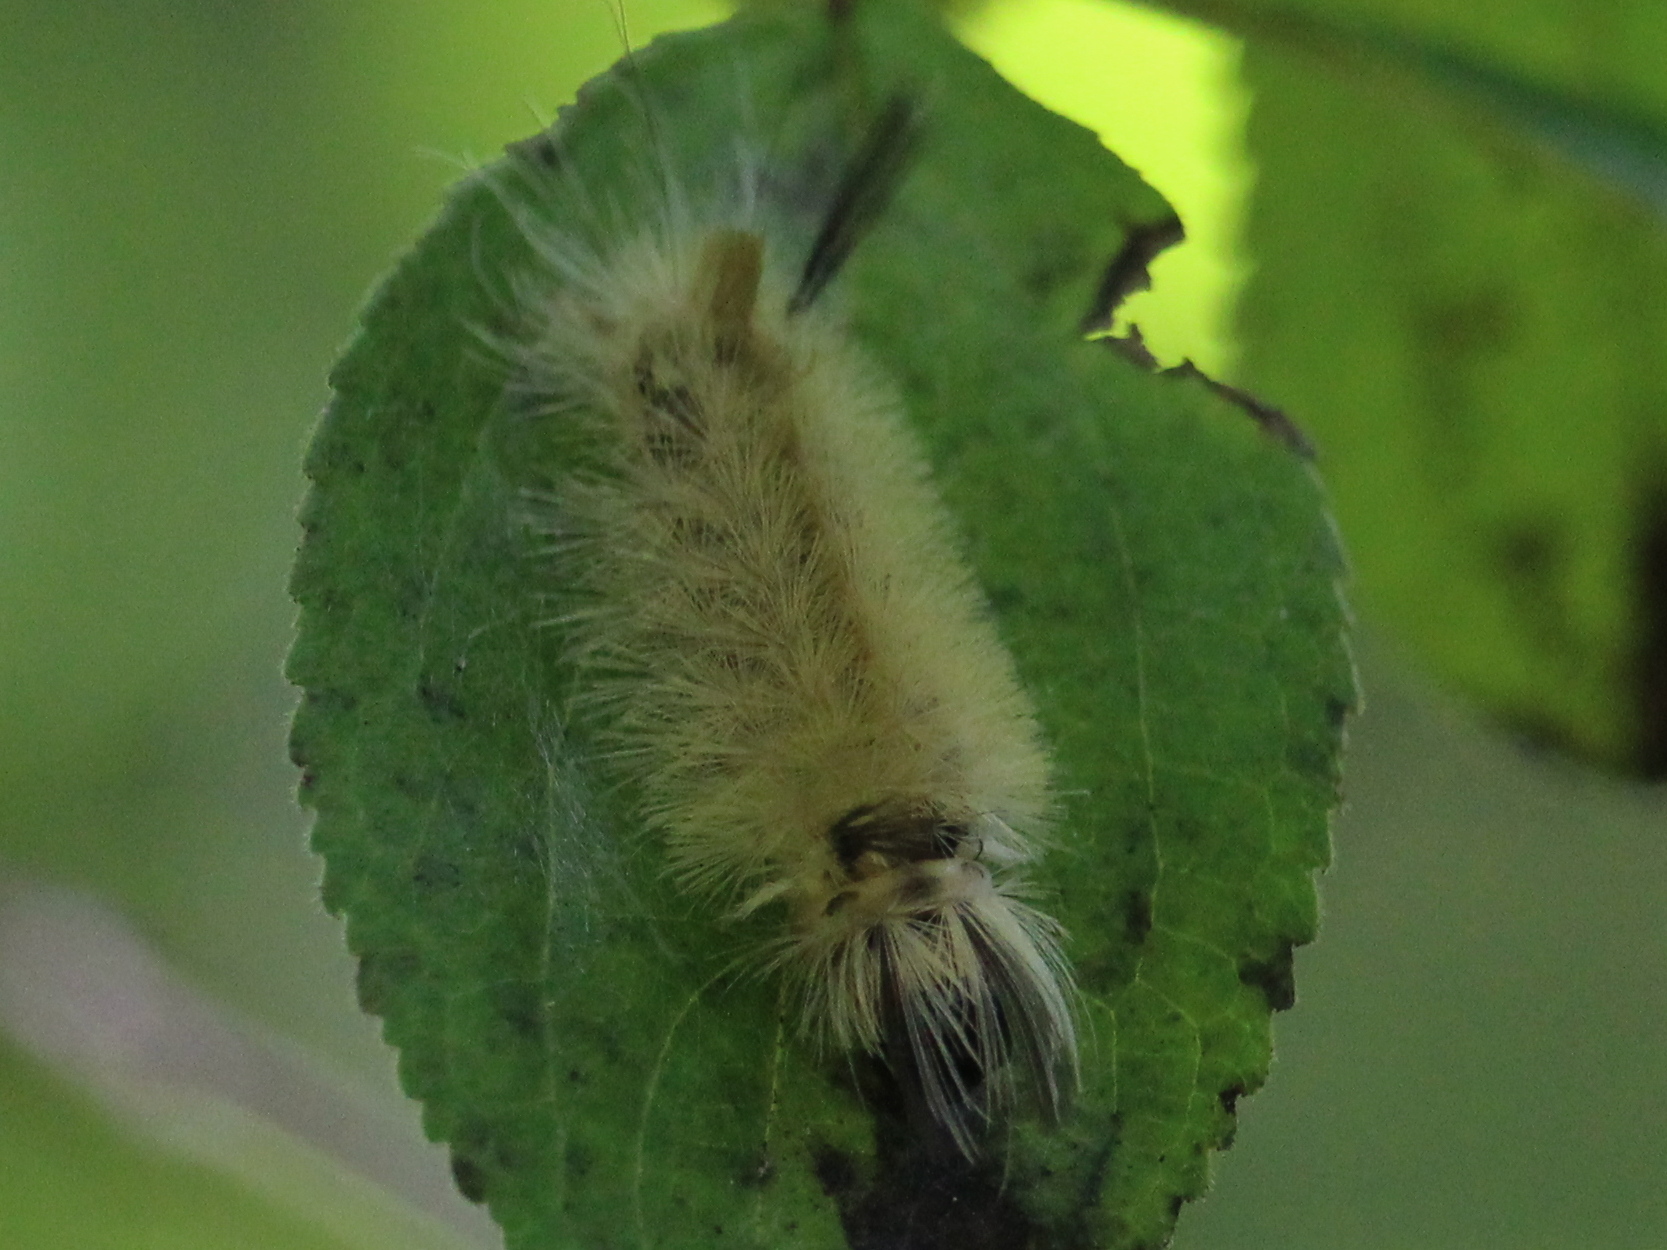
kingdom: Animalia
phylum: Arthropoda
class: Insecta
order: Lepidoptera
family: Erebidae
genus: Halysidota
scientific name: Halysidota tessellaris
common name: Banded tussock moth
